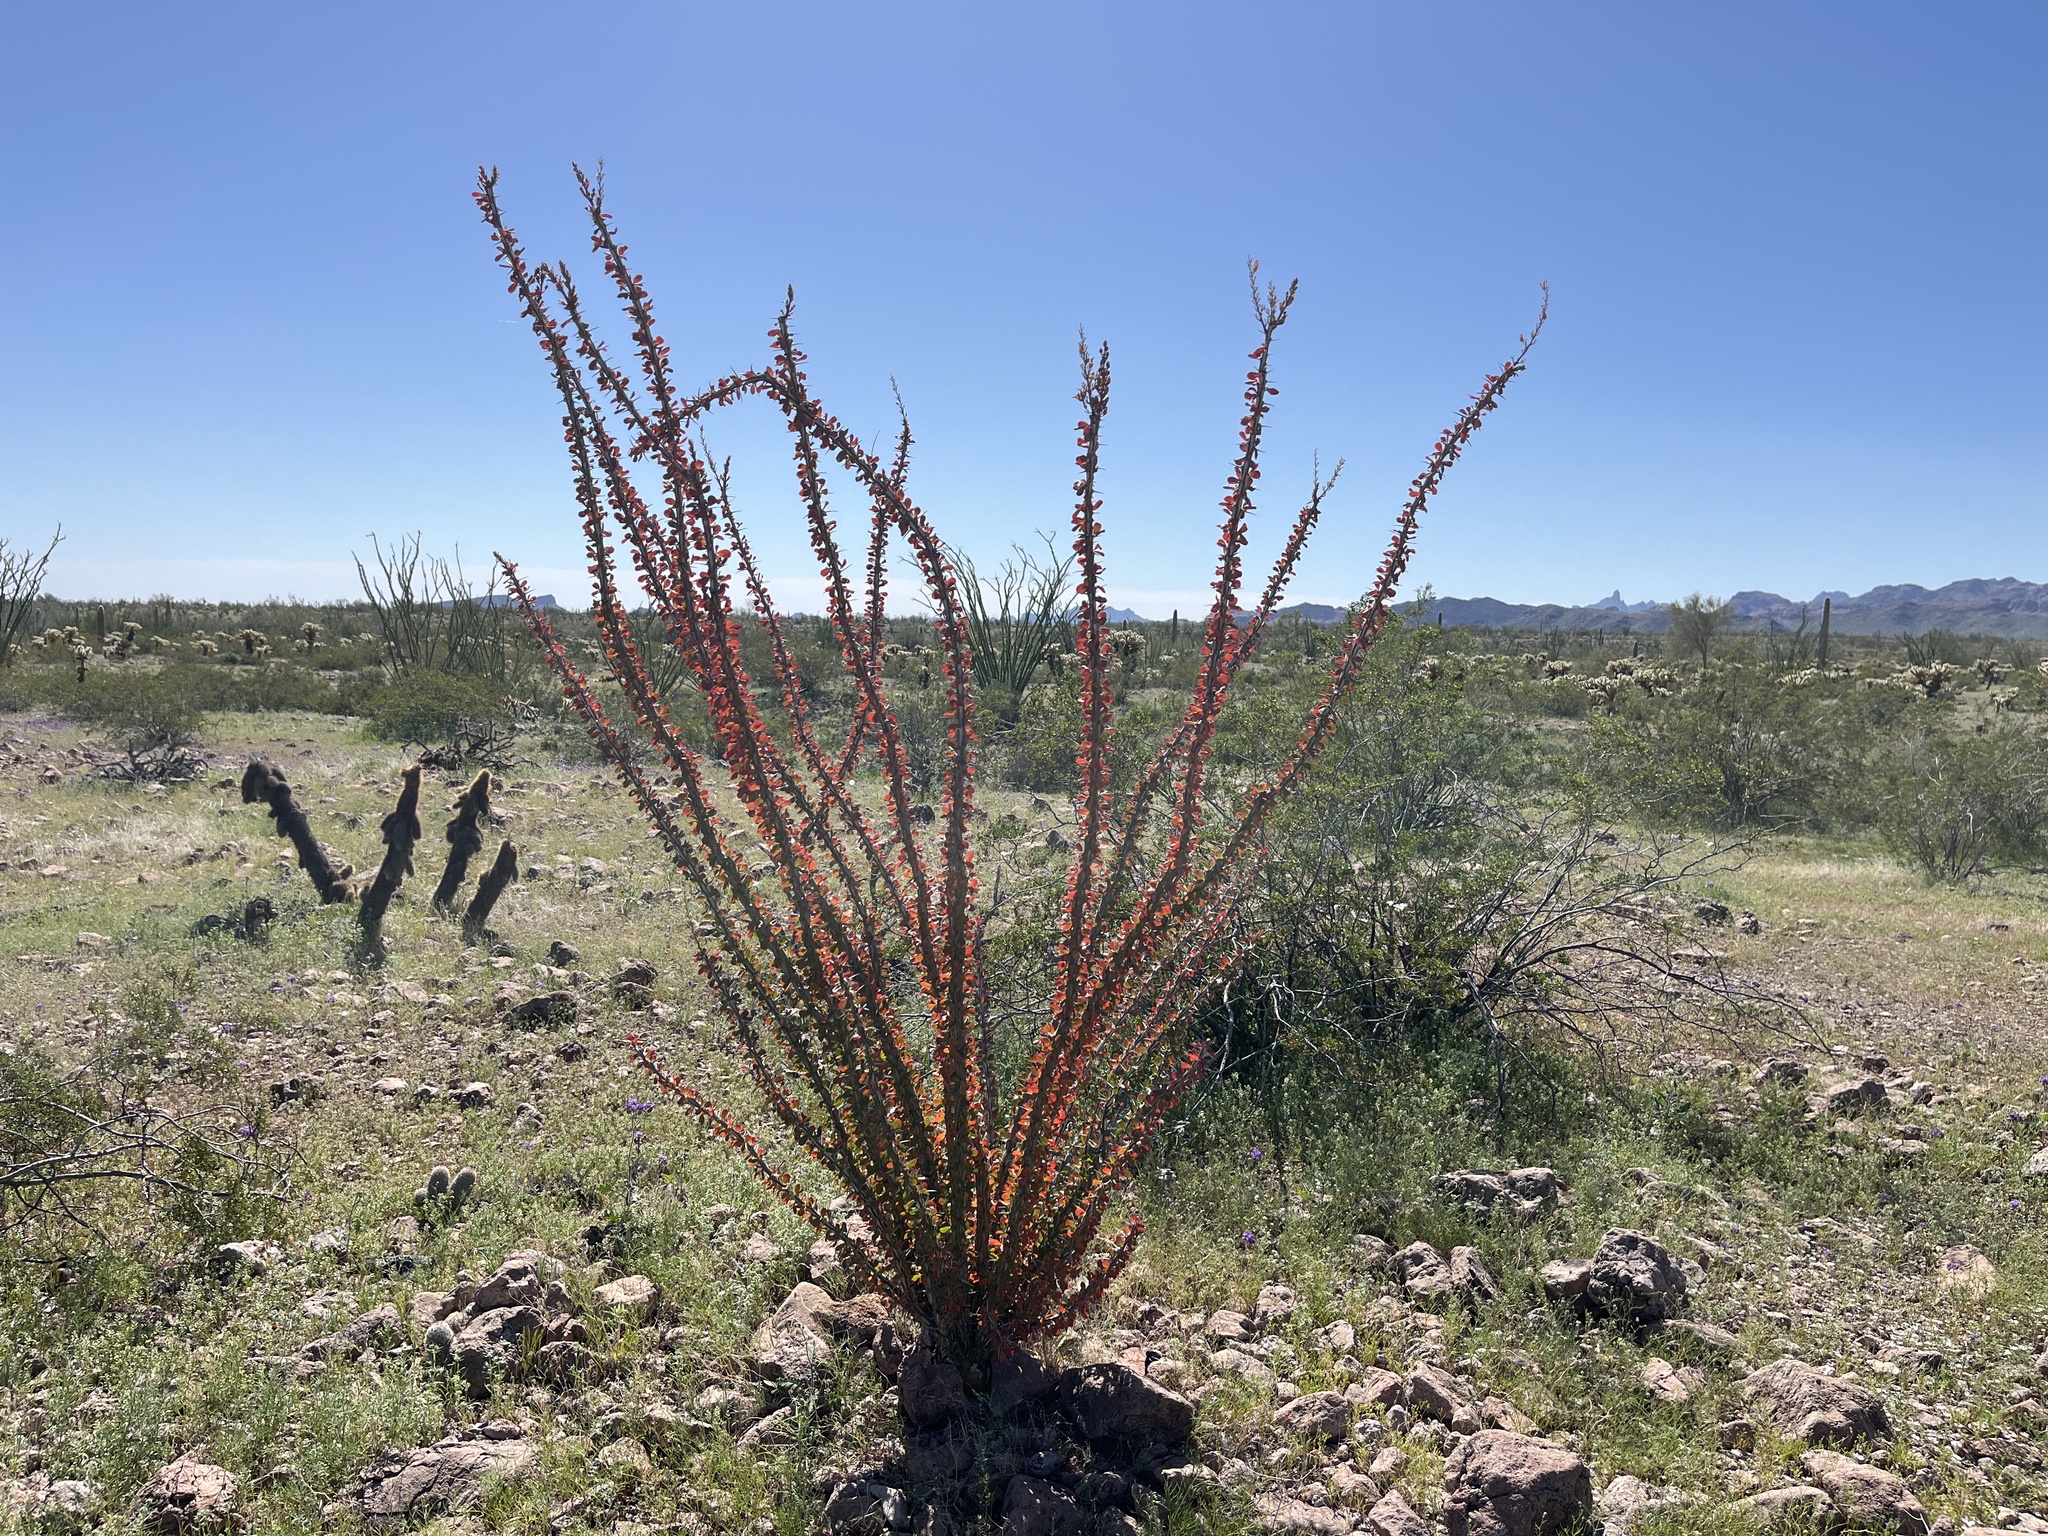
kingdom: Plantae
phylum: Tracheophyta
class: Magnoliopsida
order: Ericales
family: Fouquieriaceae
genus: Fouquieria
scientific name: Fouquieria splendens
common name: Vine-cactus
